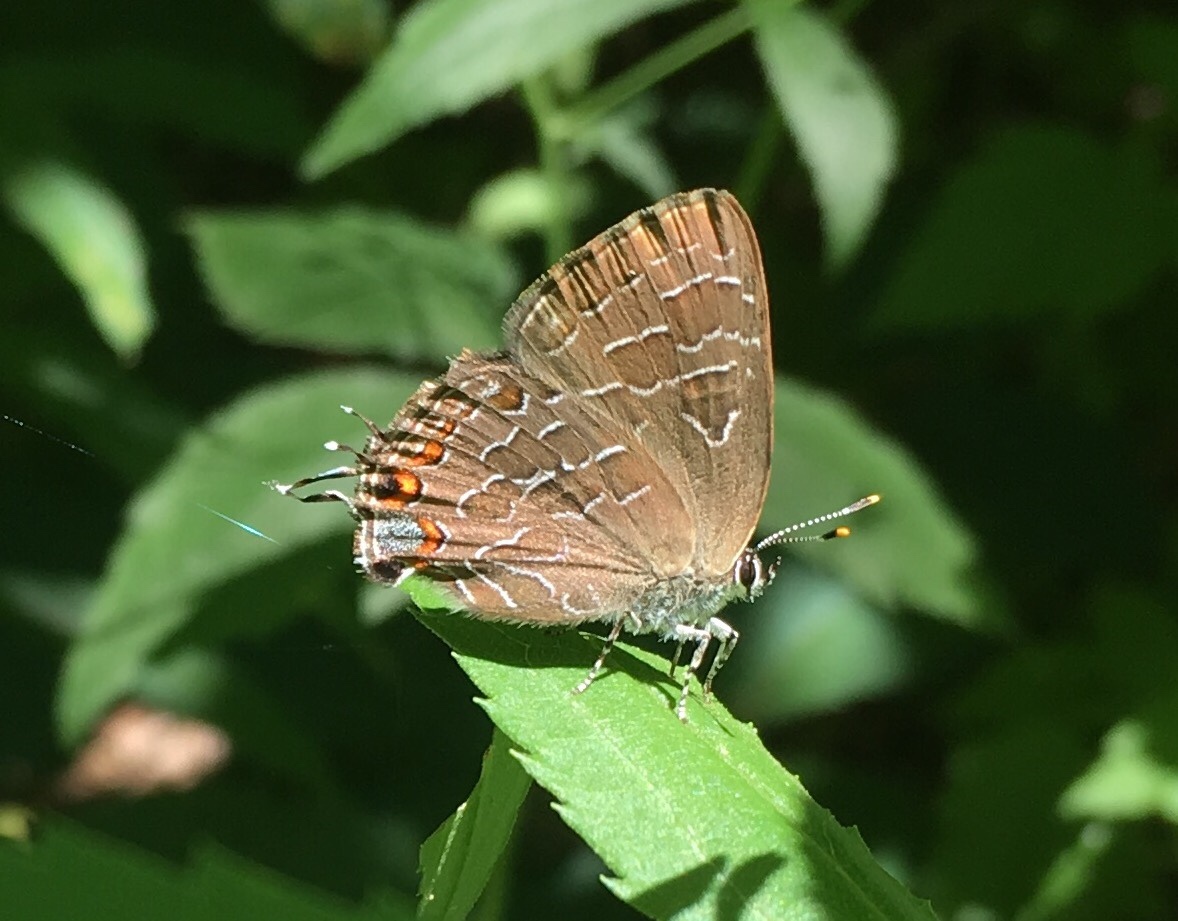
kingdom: Animalia
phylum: Arthropoda
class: Insecta
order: Lepidoptera
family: Lycaenidae
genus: Satyrium
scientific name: Satyrium liparops
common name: Striped hairstreak
